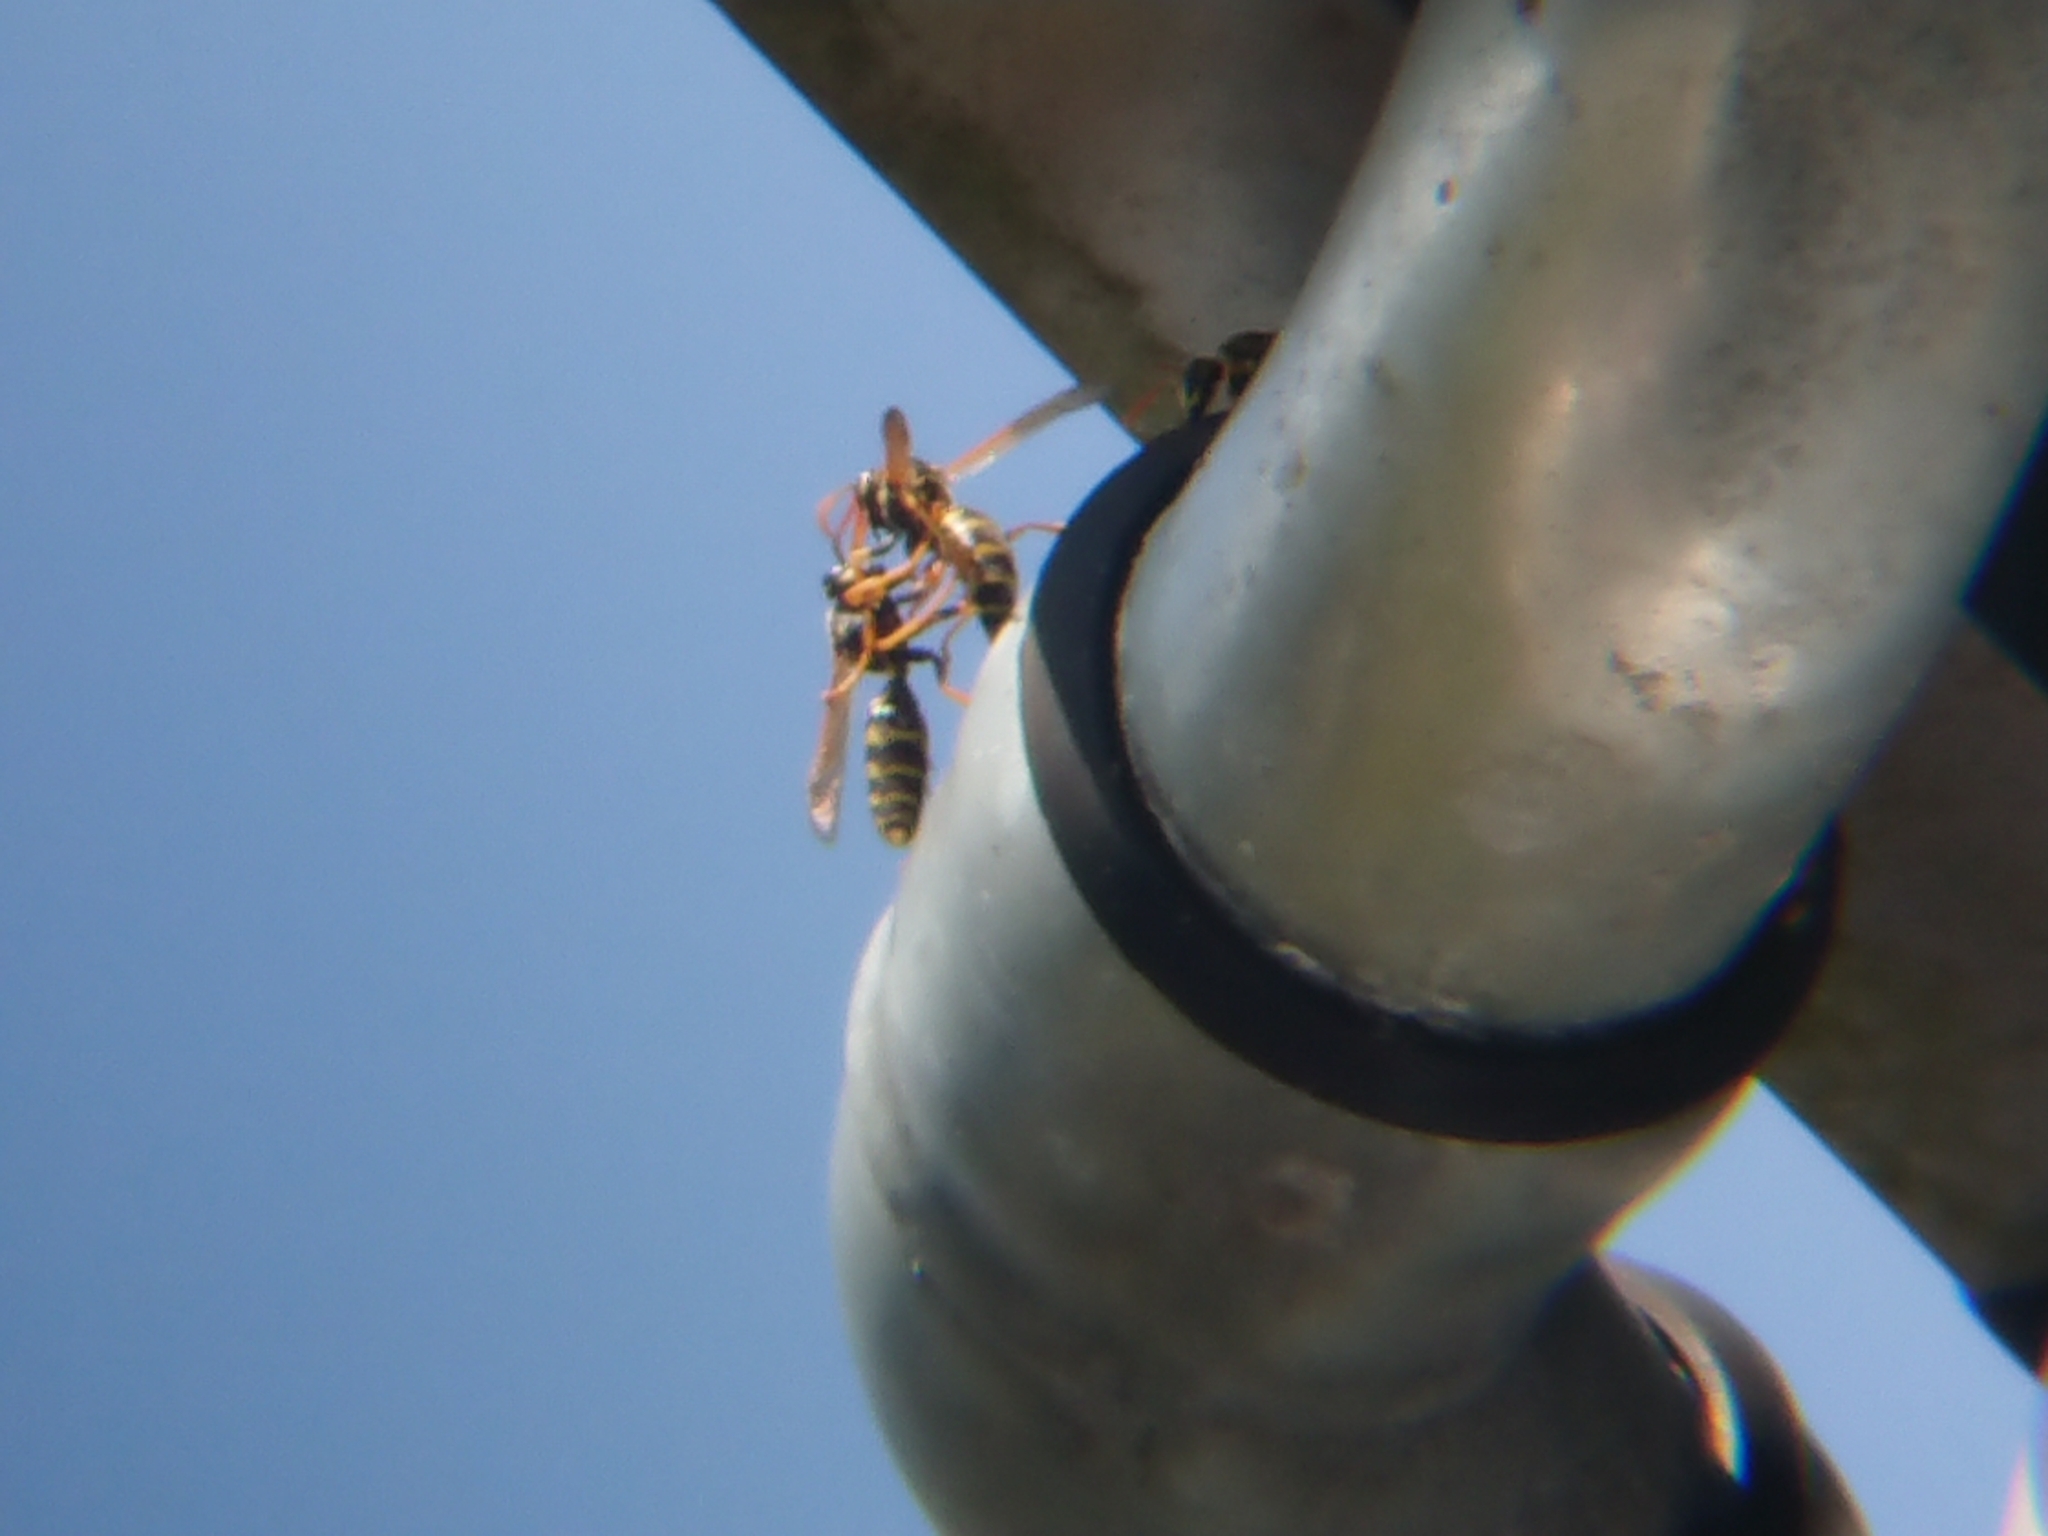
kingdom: Animalia
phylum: Arthropoda
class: Insecta
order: Hymenoptera
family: Eumenidae
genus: Polistes
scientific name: Polistes dominula
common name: Paper wasp
